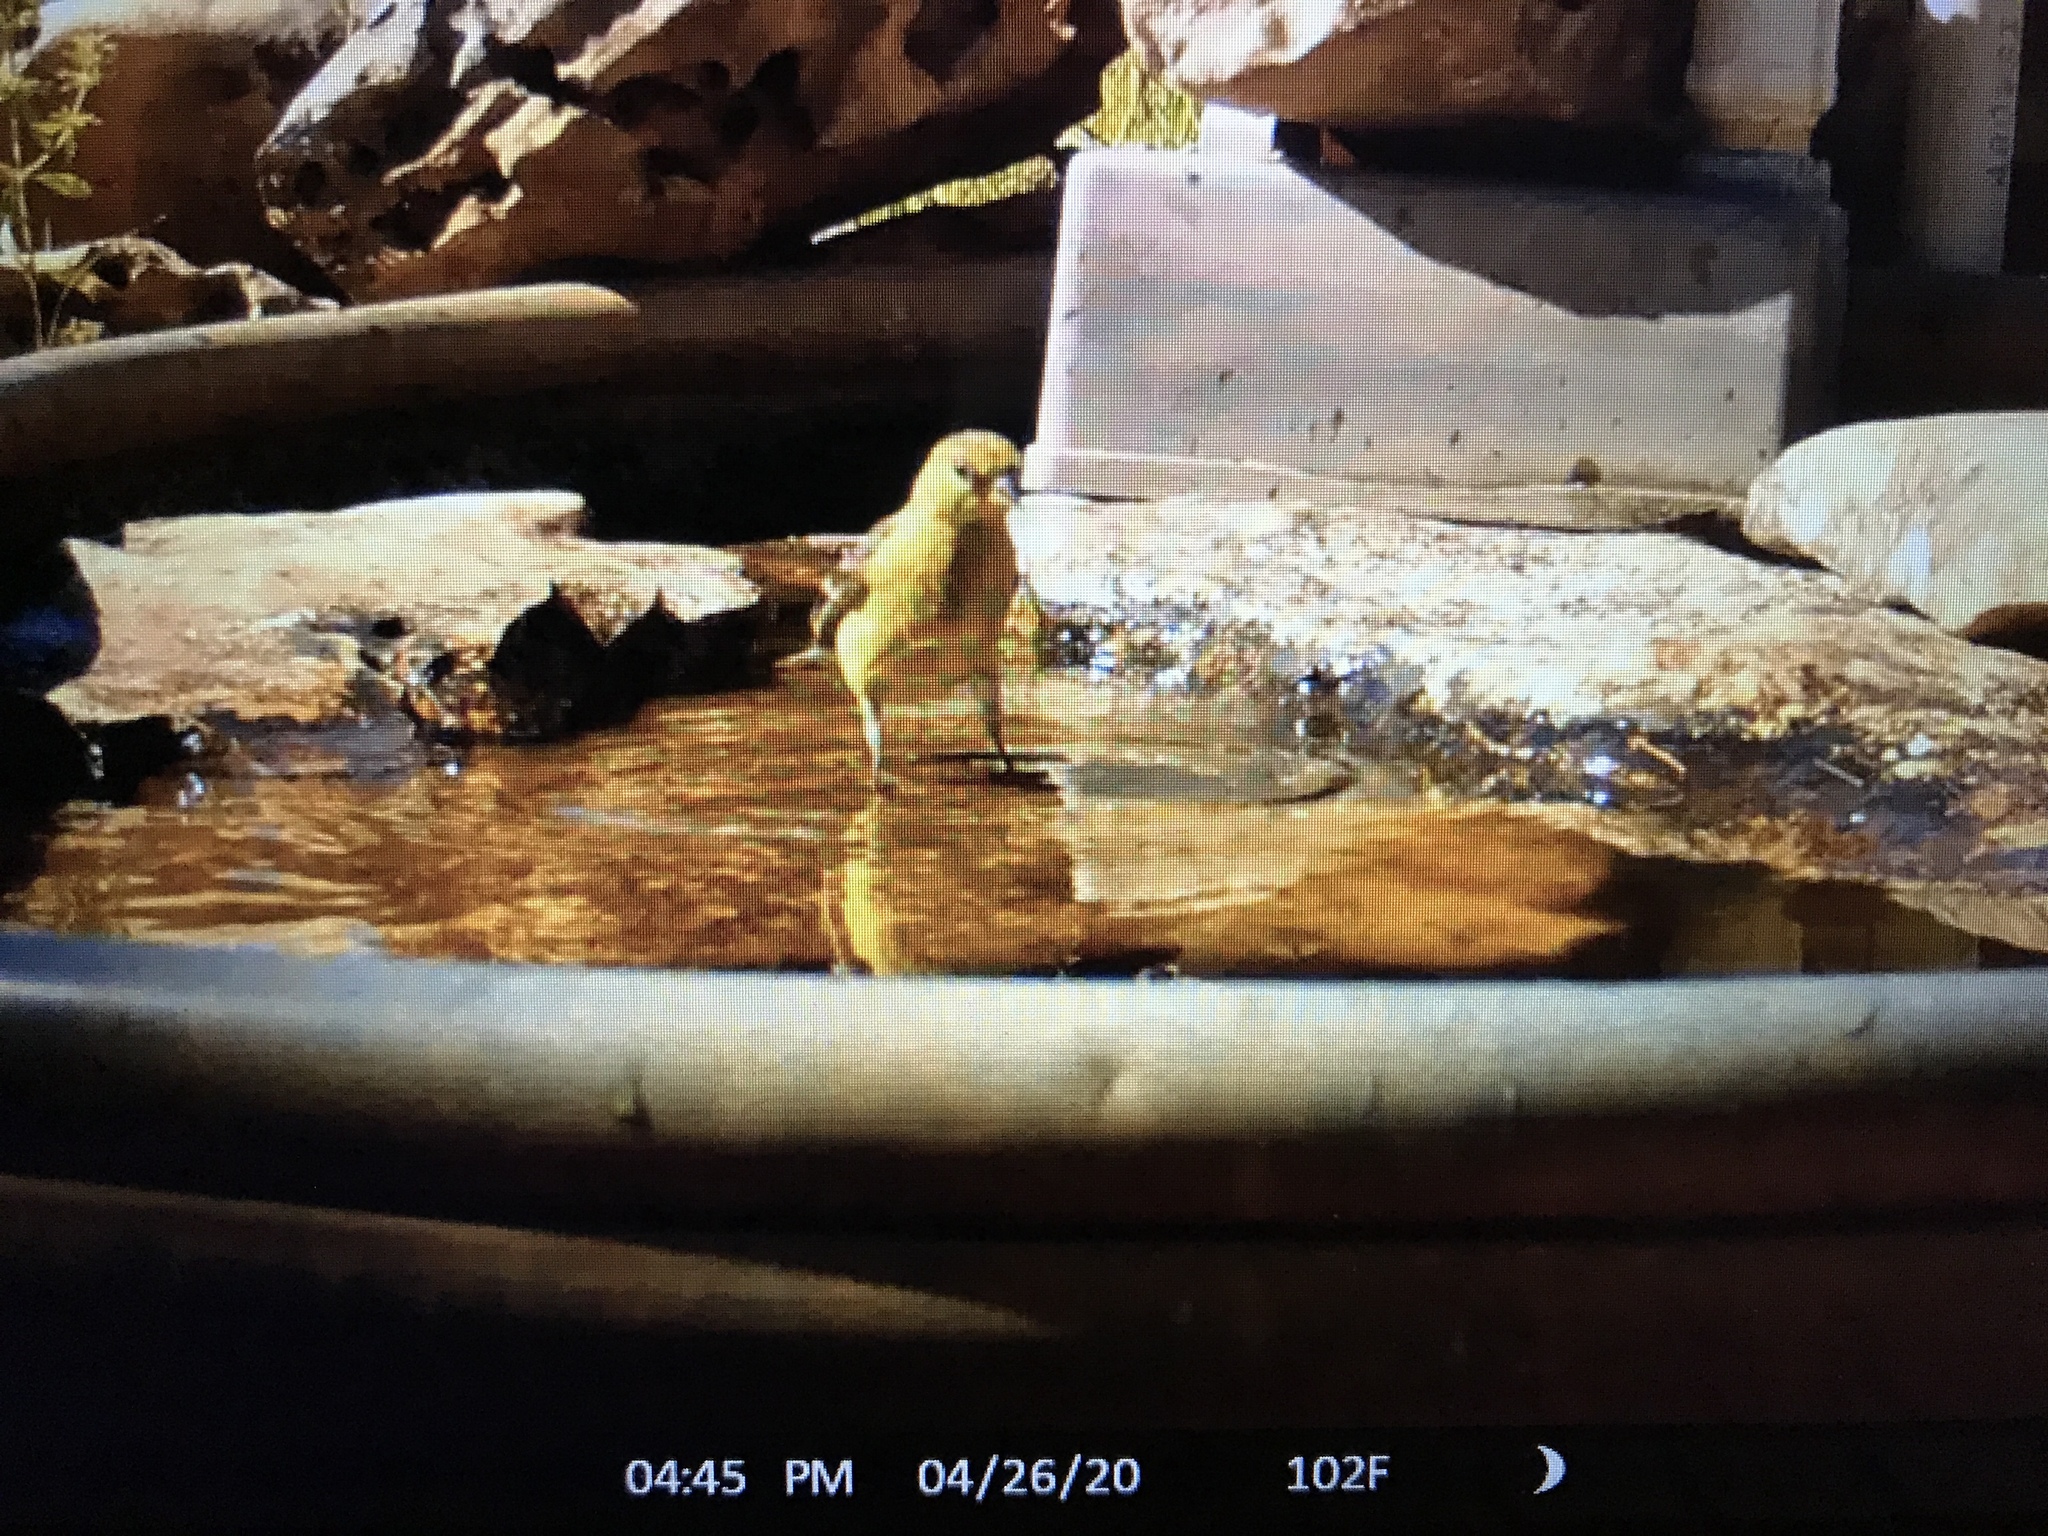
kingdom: Animalia
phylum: Chordata
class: Aves
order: Passeriformes
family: Fringillidae
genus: Spinus
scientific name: Spinus psaltria
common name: Lesser goldfinch
